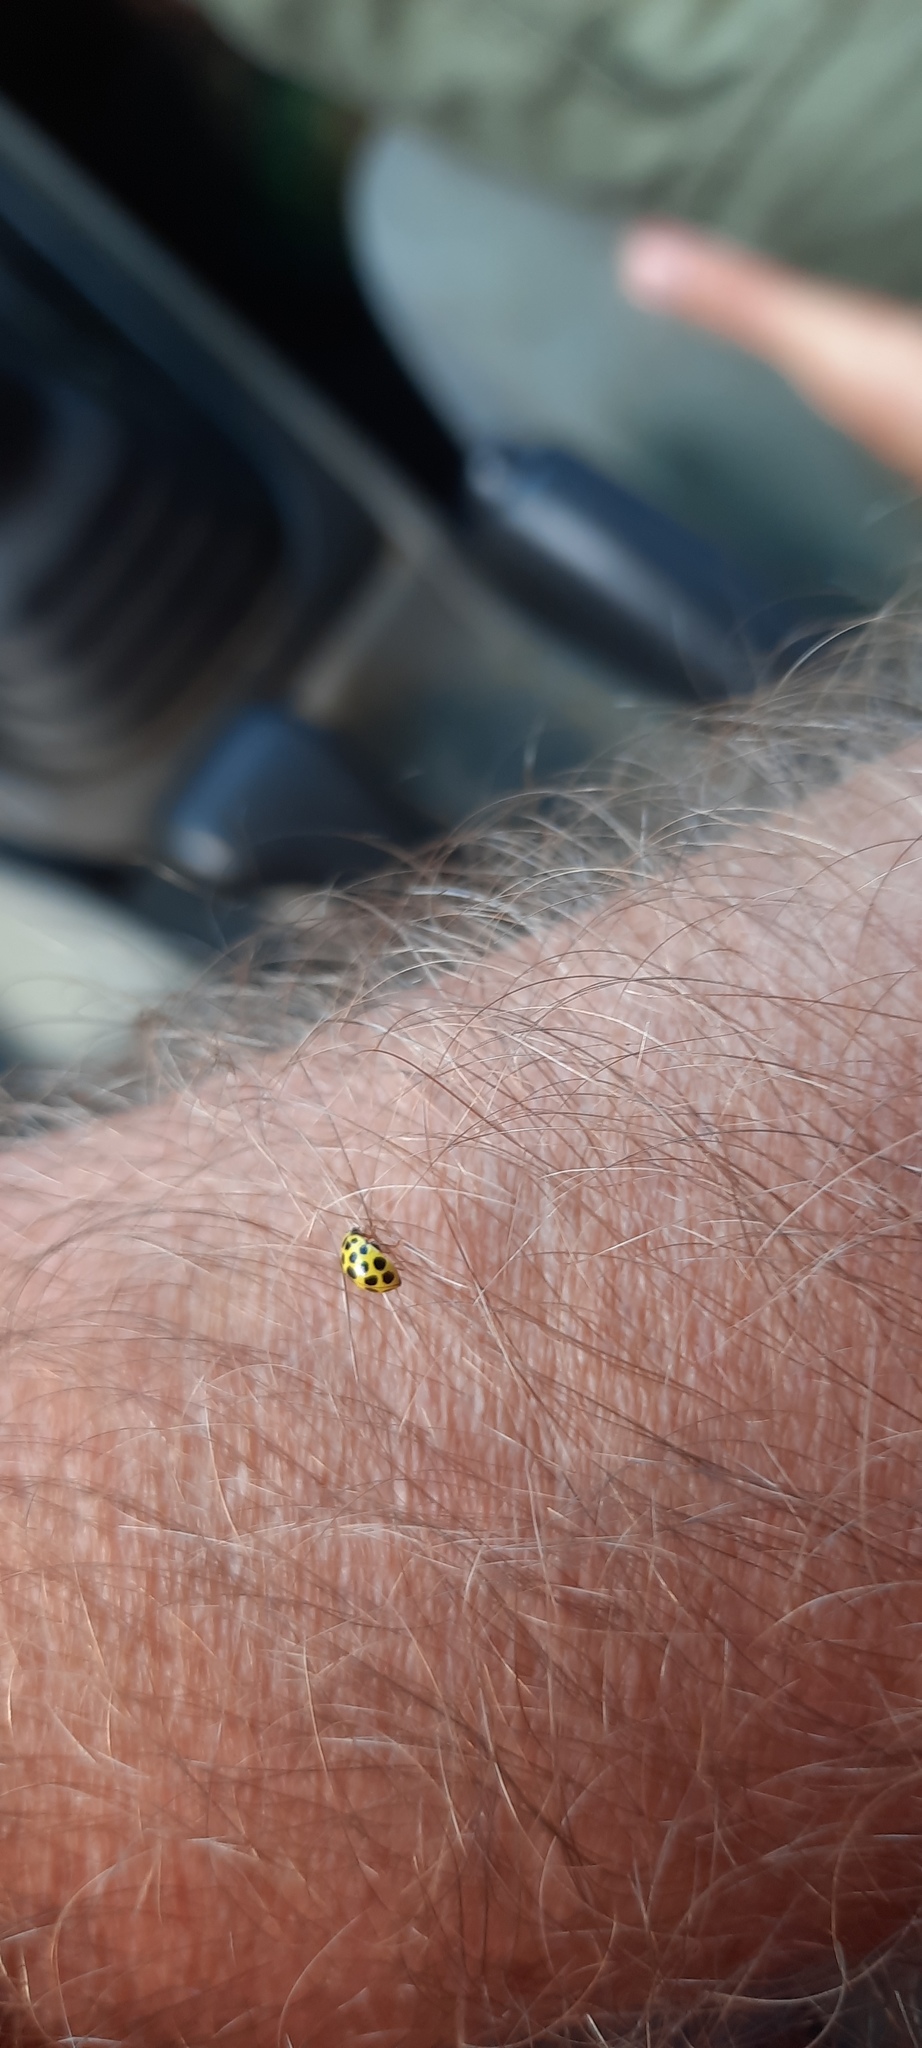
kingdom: Animalia
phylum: Arthropoda
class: Insecta
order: Coleoptera
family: Coccinellidae
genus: Psyllobora
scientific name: Psyllobora vigintiduopunctata
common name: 22-spot ladybird
